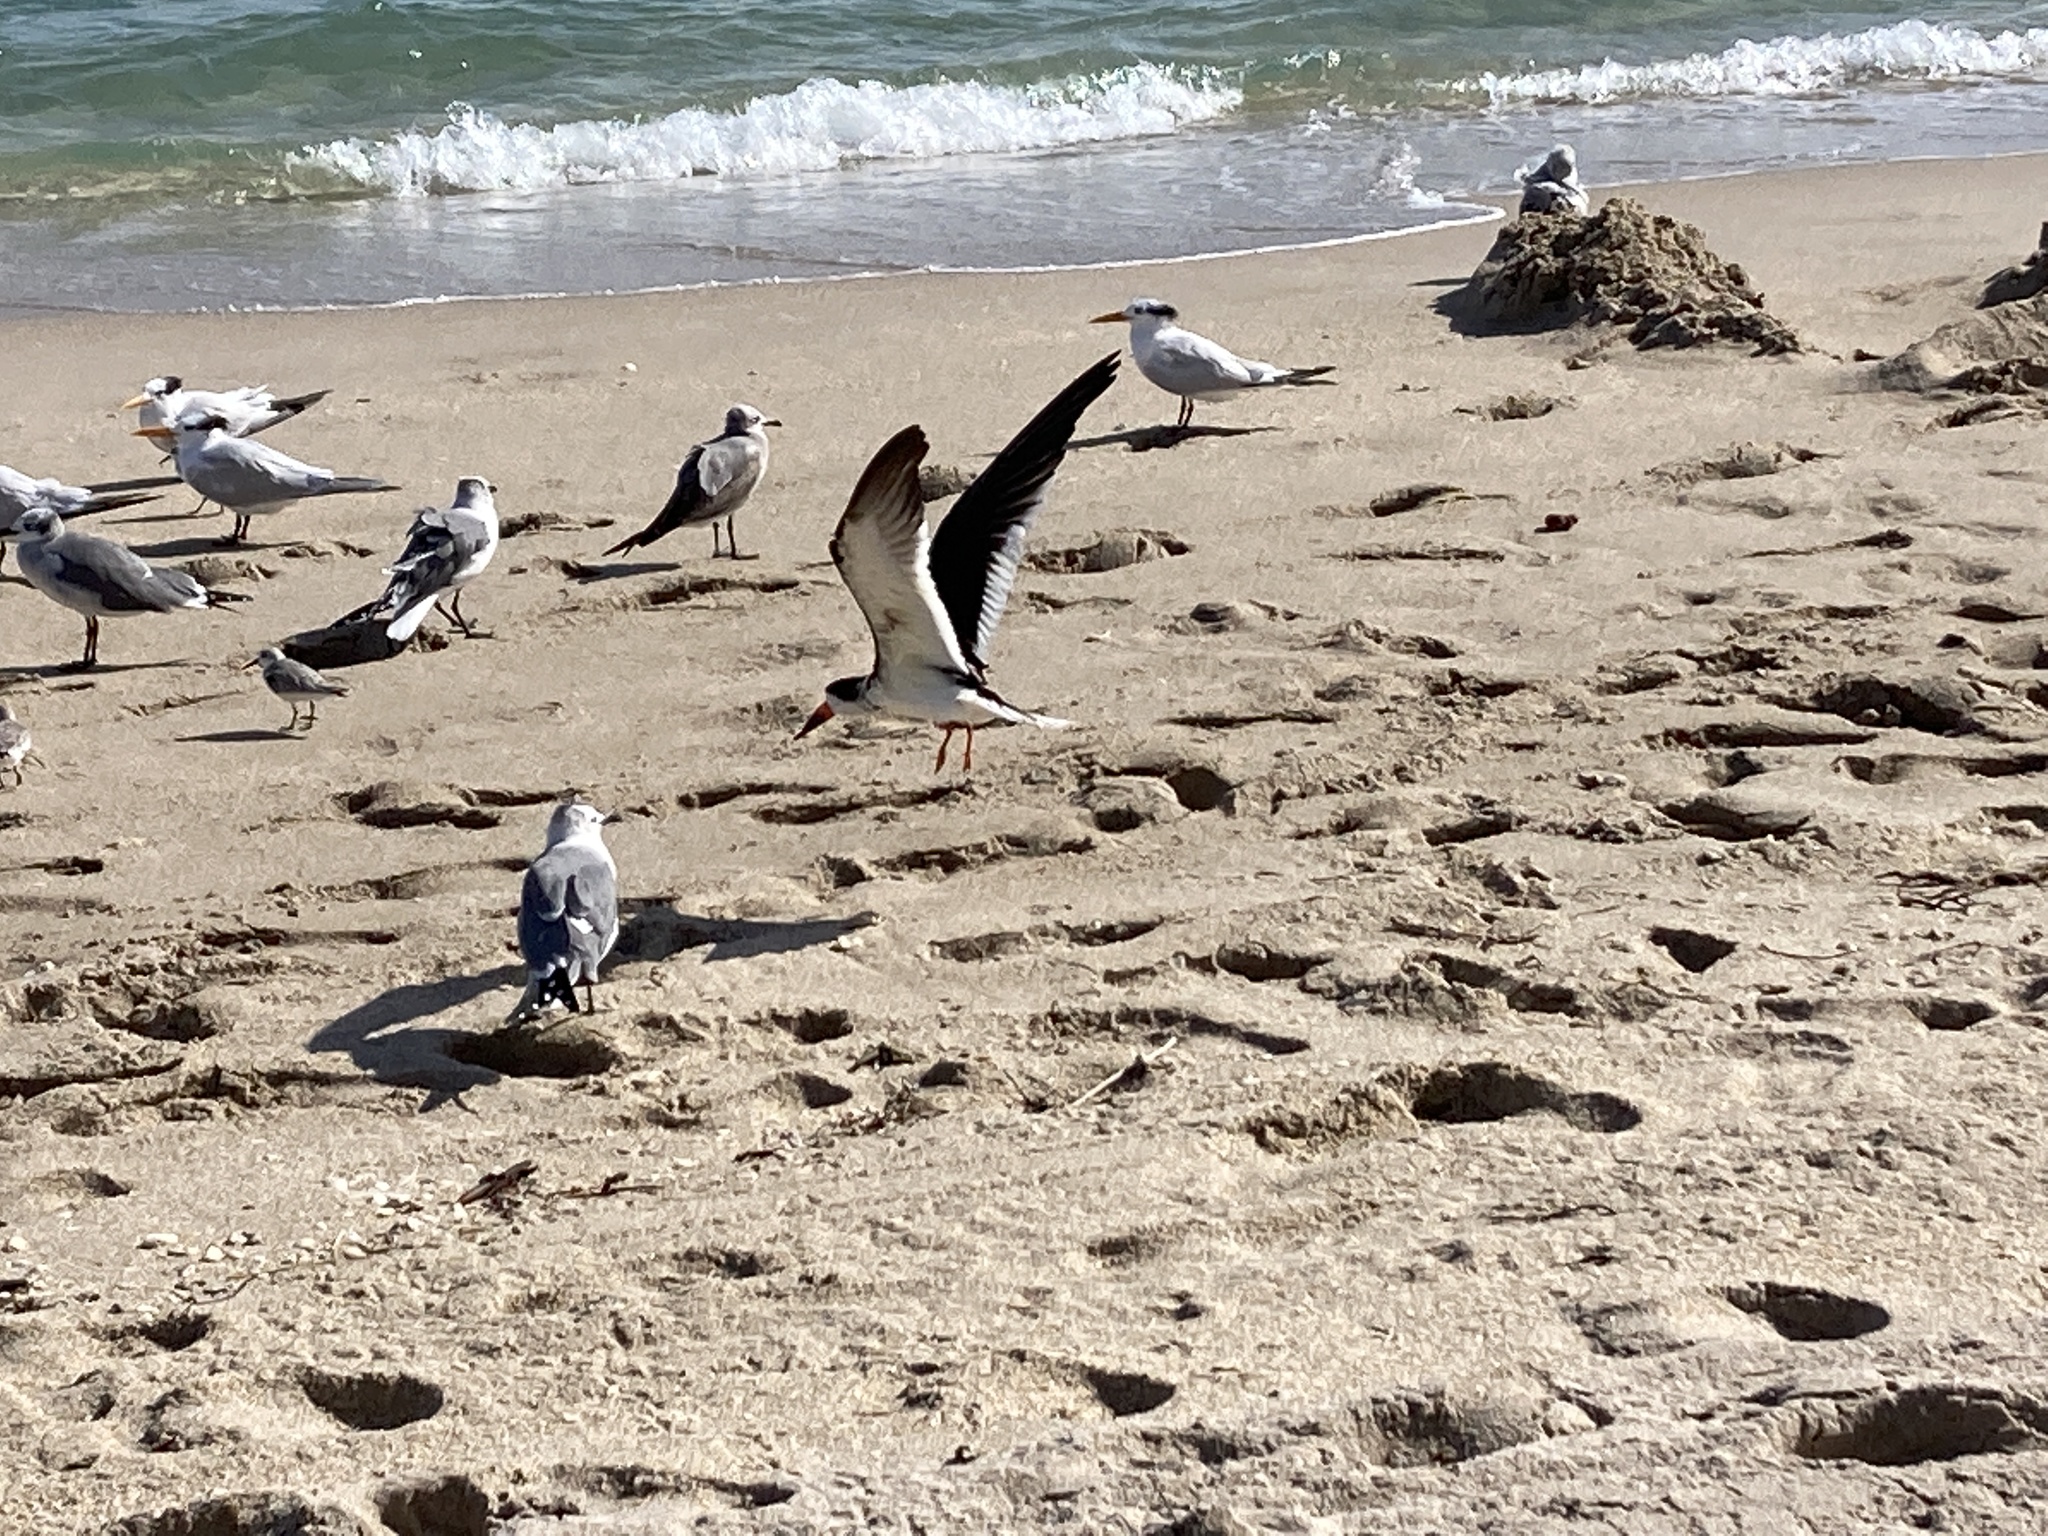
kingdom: Animalia
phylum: Chordata
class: Aves
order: Charadriiformes
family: Laridae
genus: Rynchops
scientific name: Rynchops niger
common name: Black skimmer
